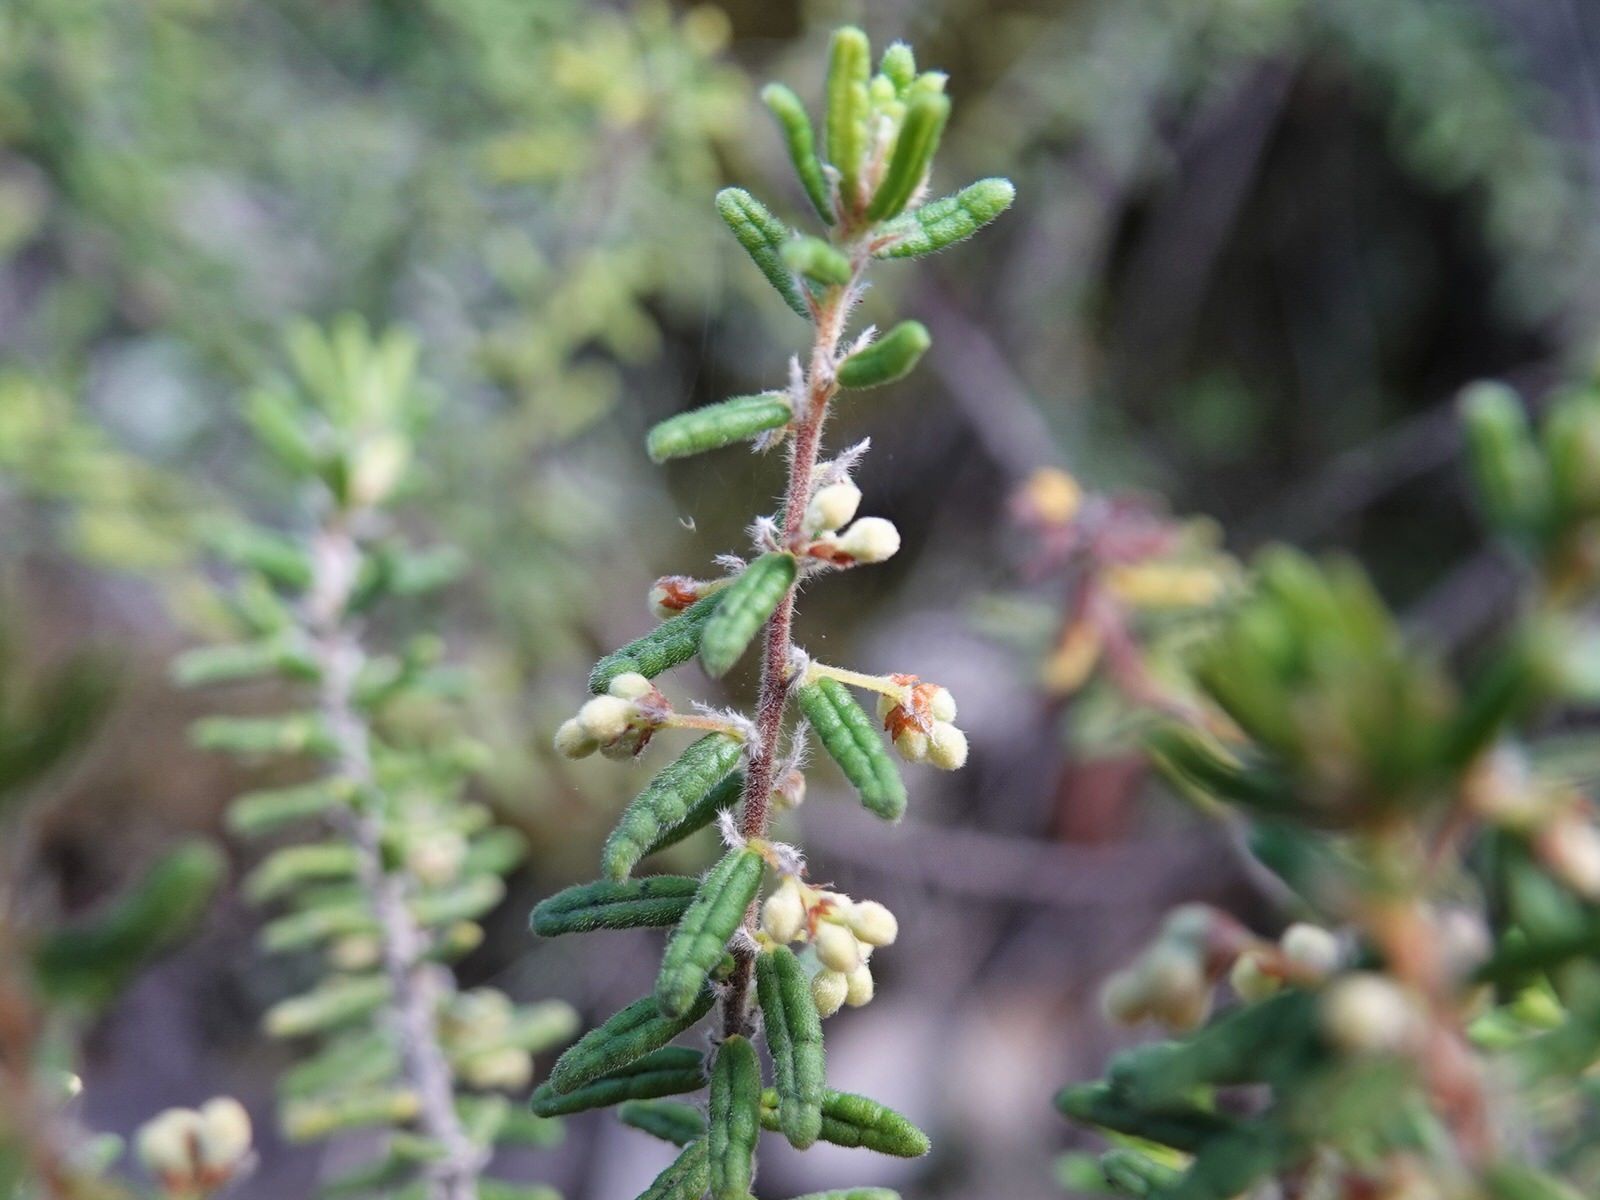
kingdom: Plantae
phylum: Tracheophyta
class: Magnoliopsida
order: Rosales
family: Rhamnaceae
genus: Pomaderris
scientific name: Pomaderris amoena
